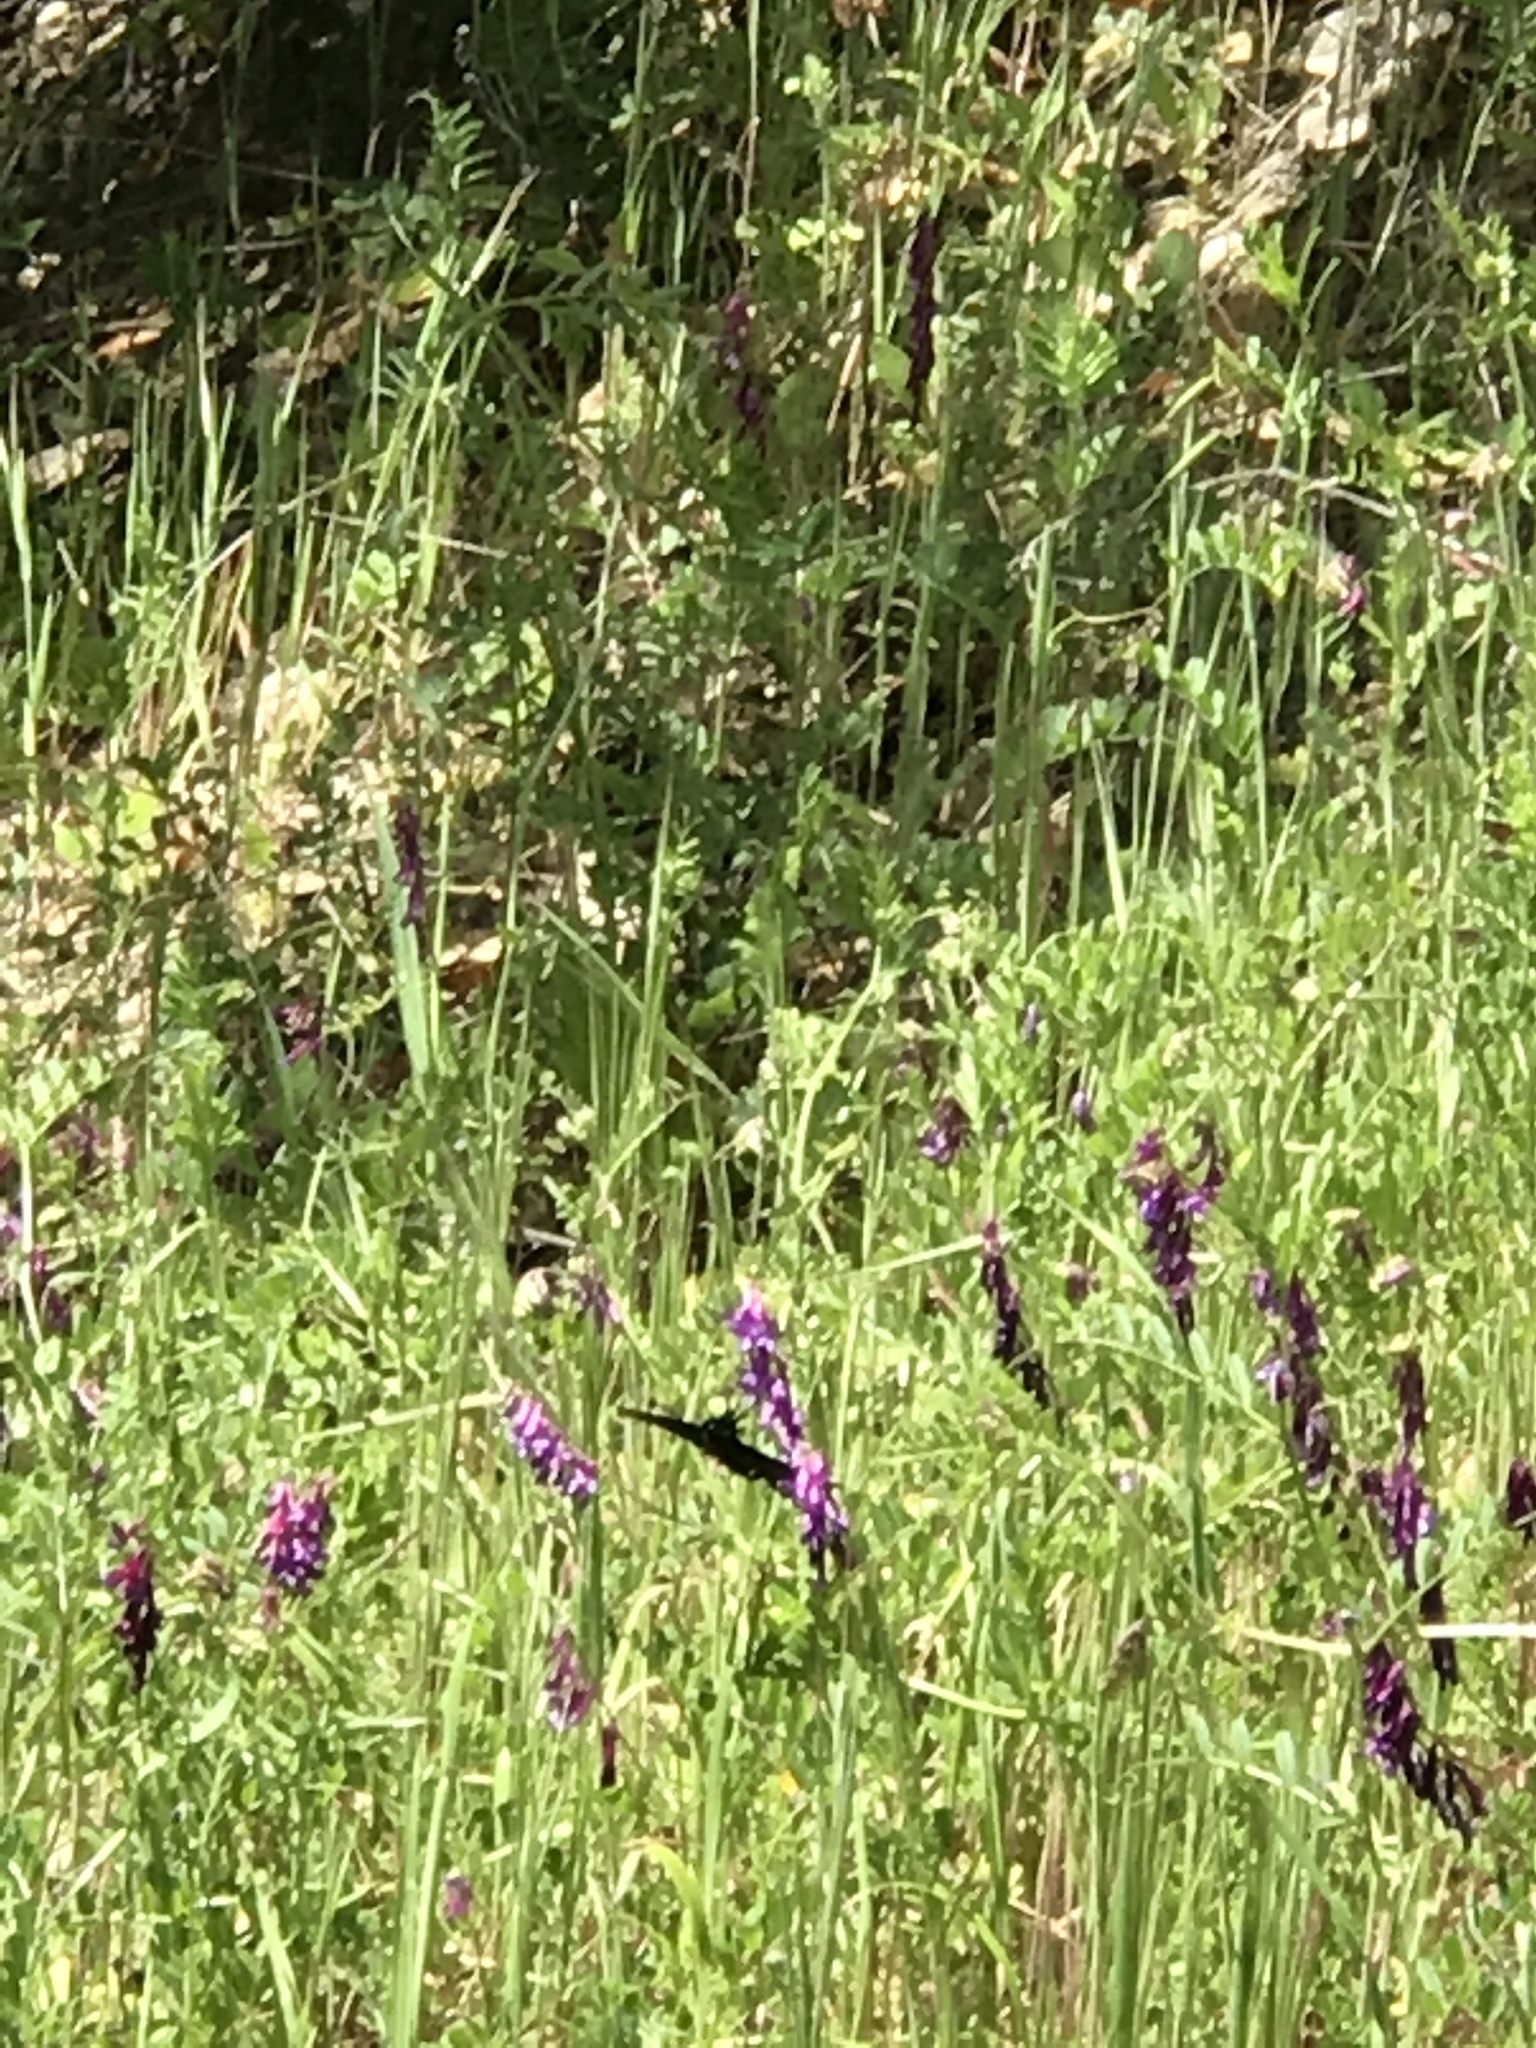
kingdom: Animalia
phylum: Arthropoda
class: Insecta
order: Lepidoptera
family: Papilionidae
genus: Battus
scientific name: Battus philenor
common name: Pipevine swallowtail
